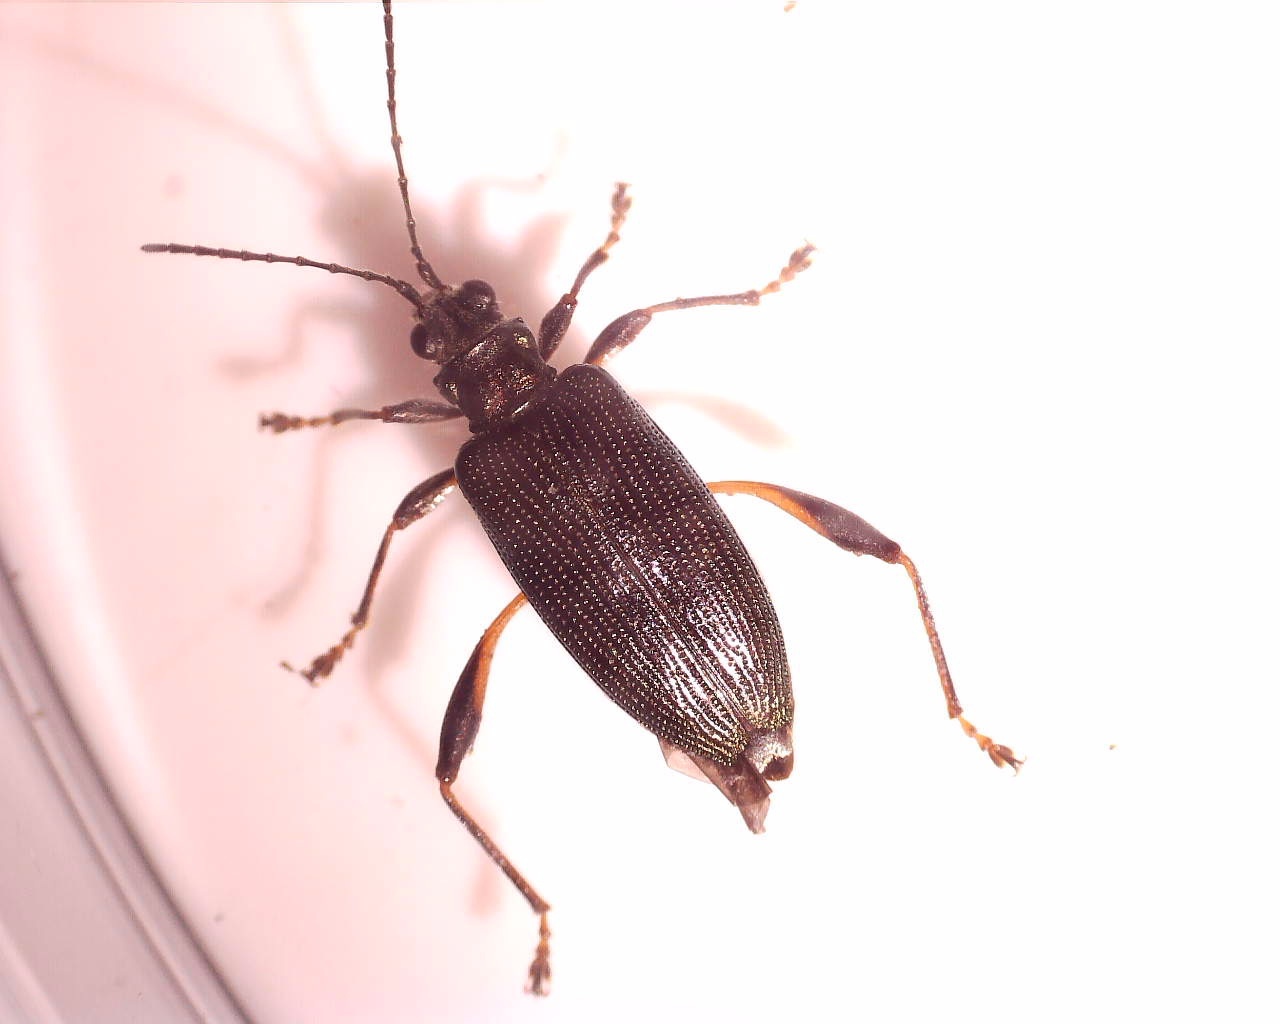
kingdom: Animalia
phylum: Arthropoda
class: Insecta
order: Coleoptera
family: Chrysomelidae
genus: Donacia
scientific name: Donacia crassipes
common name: Water-lily reed beetle
